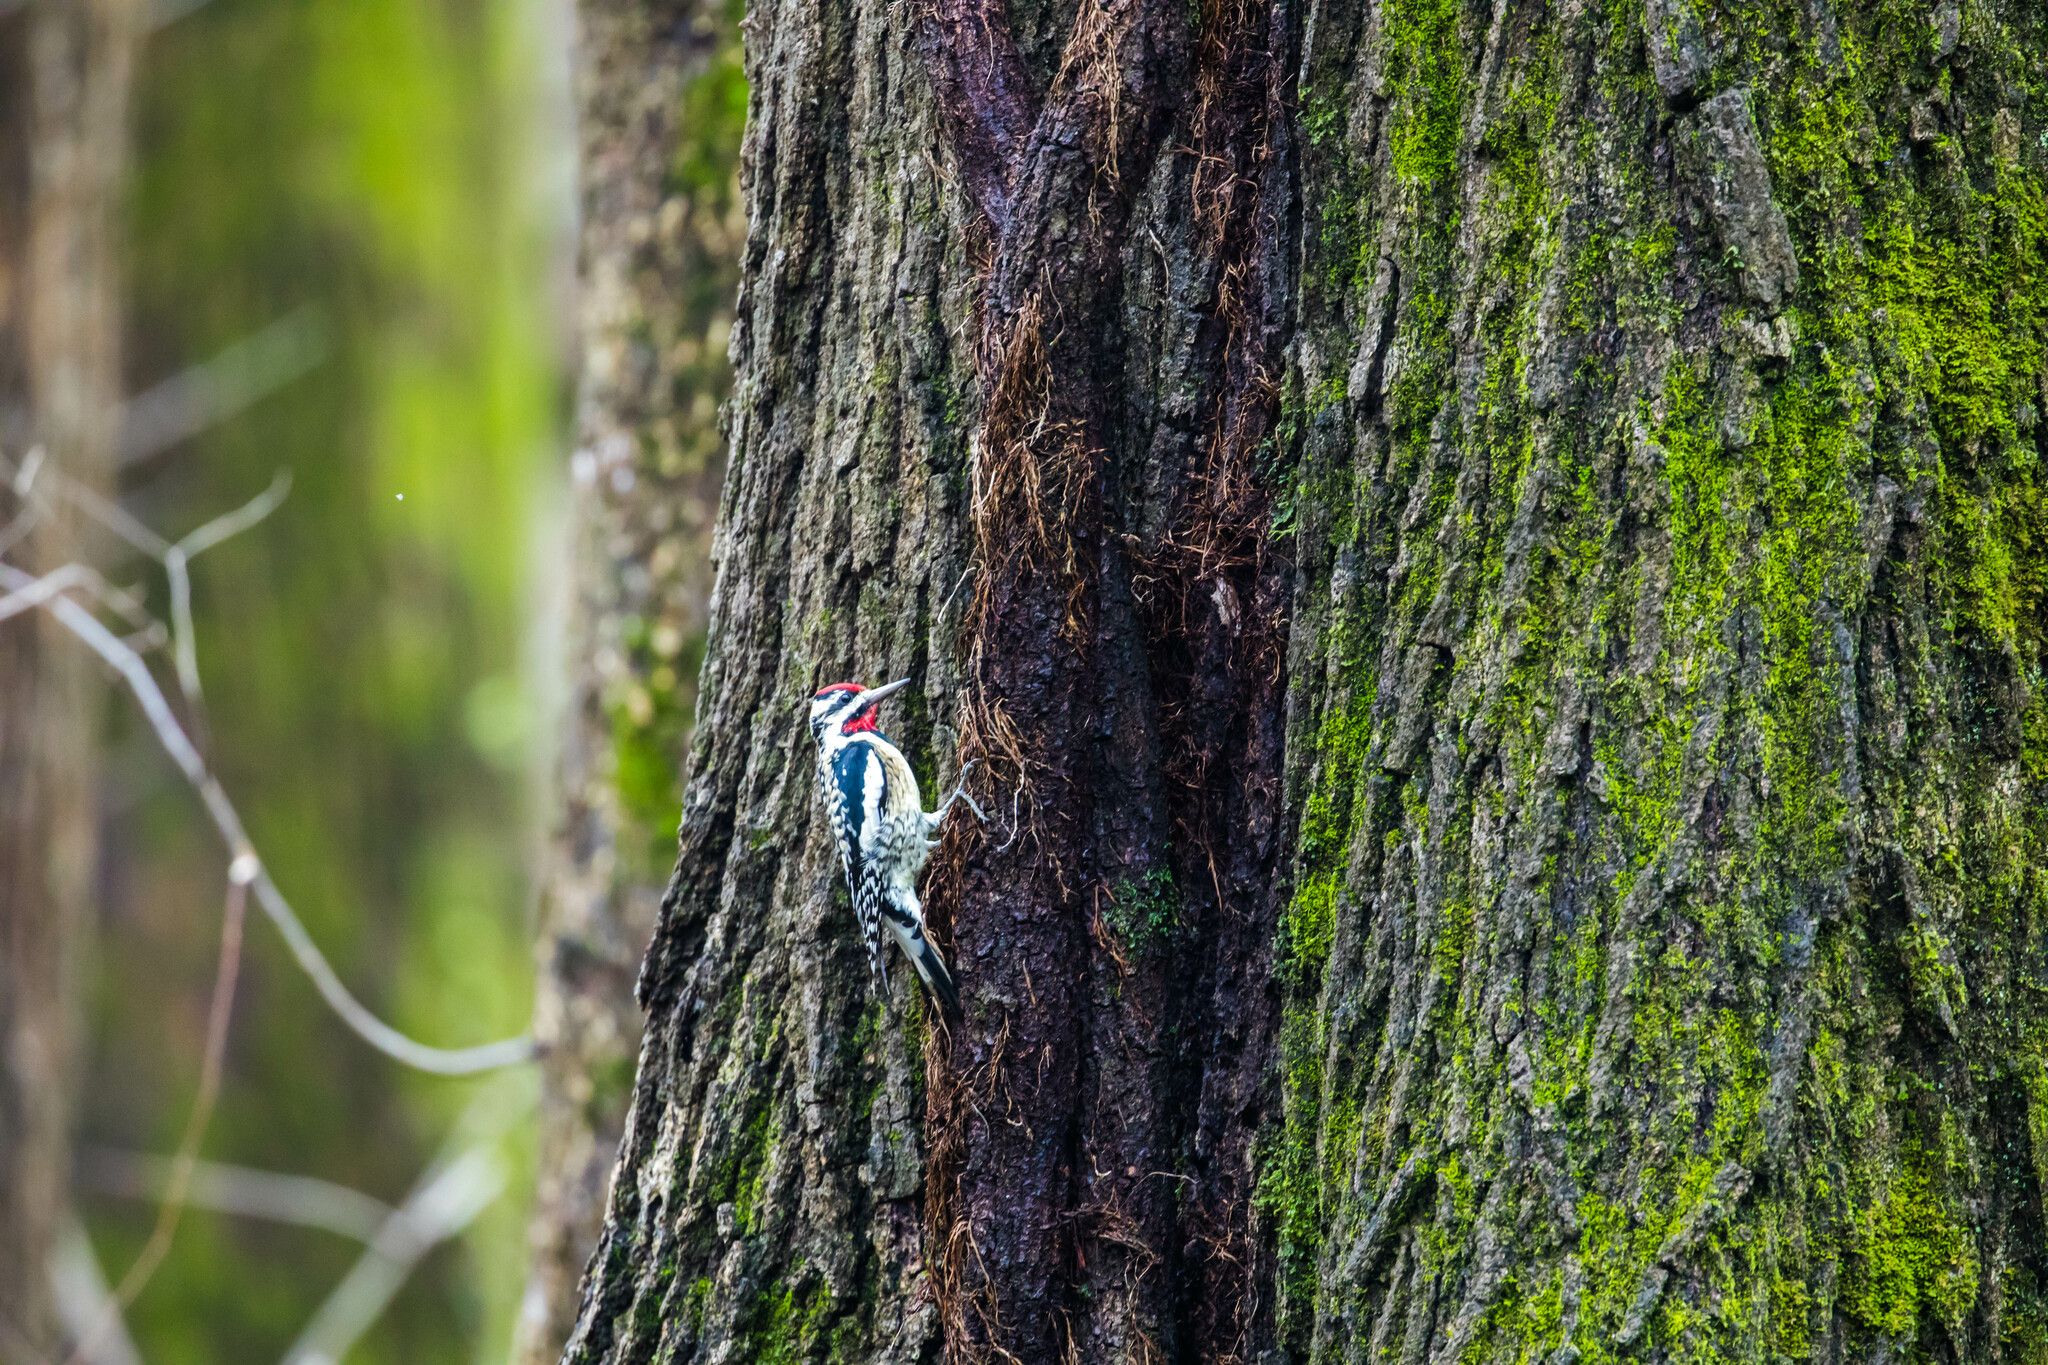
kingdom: Animalia
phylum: Chordata
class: Aves
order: Piciformes
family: Picidae
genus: Sphyrapicus
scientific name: Sphyrapicus varius
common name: Yellow-bellied sapsucker
